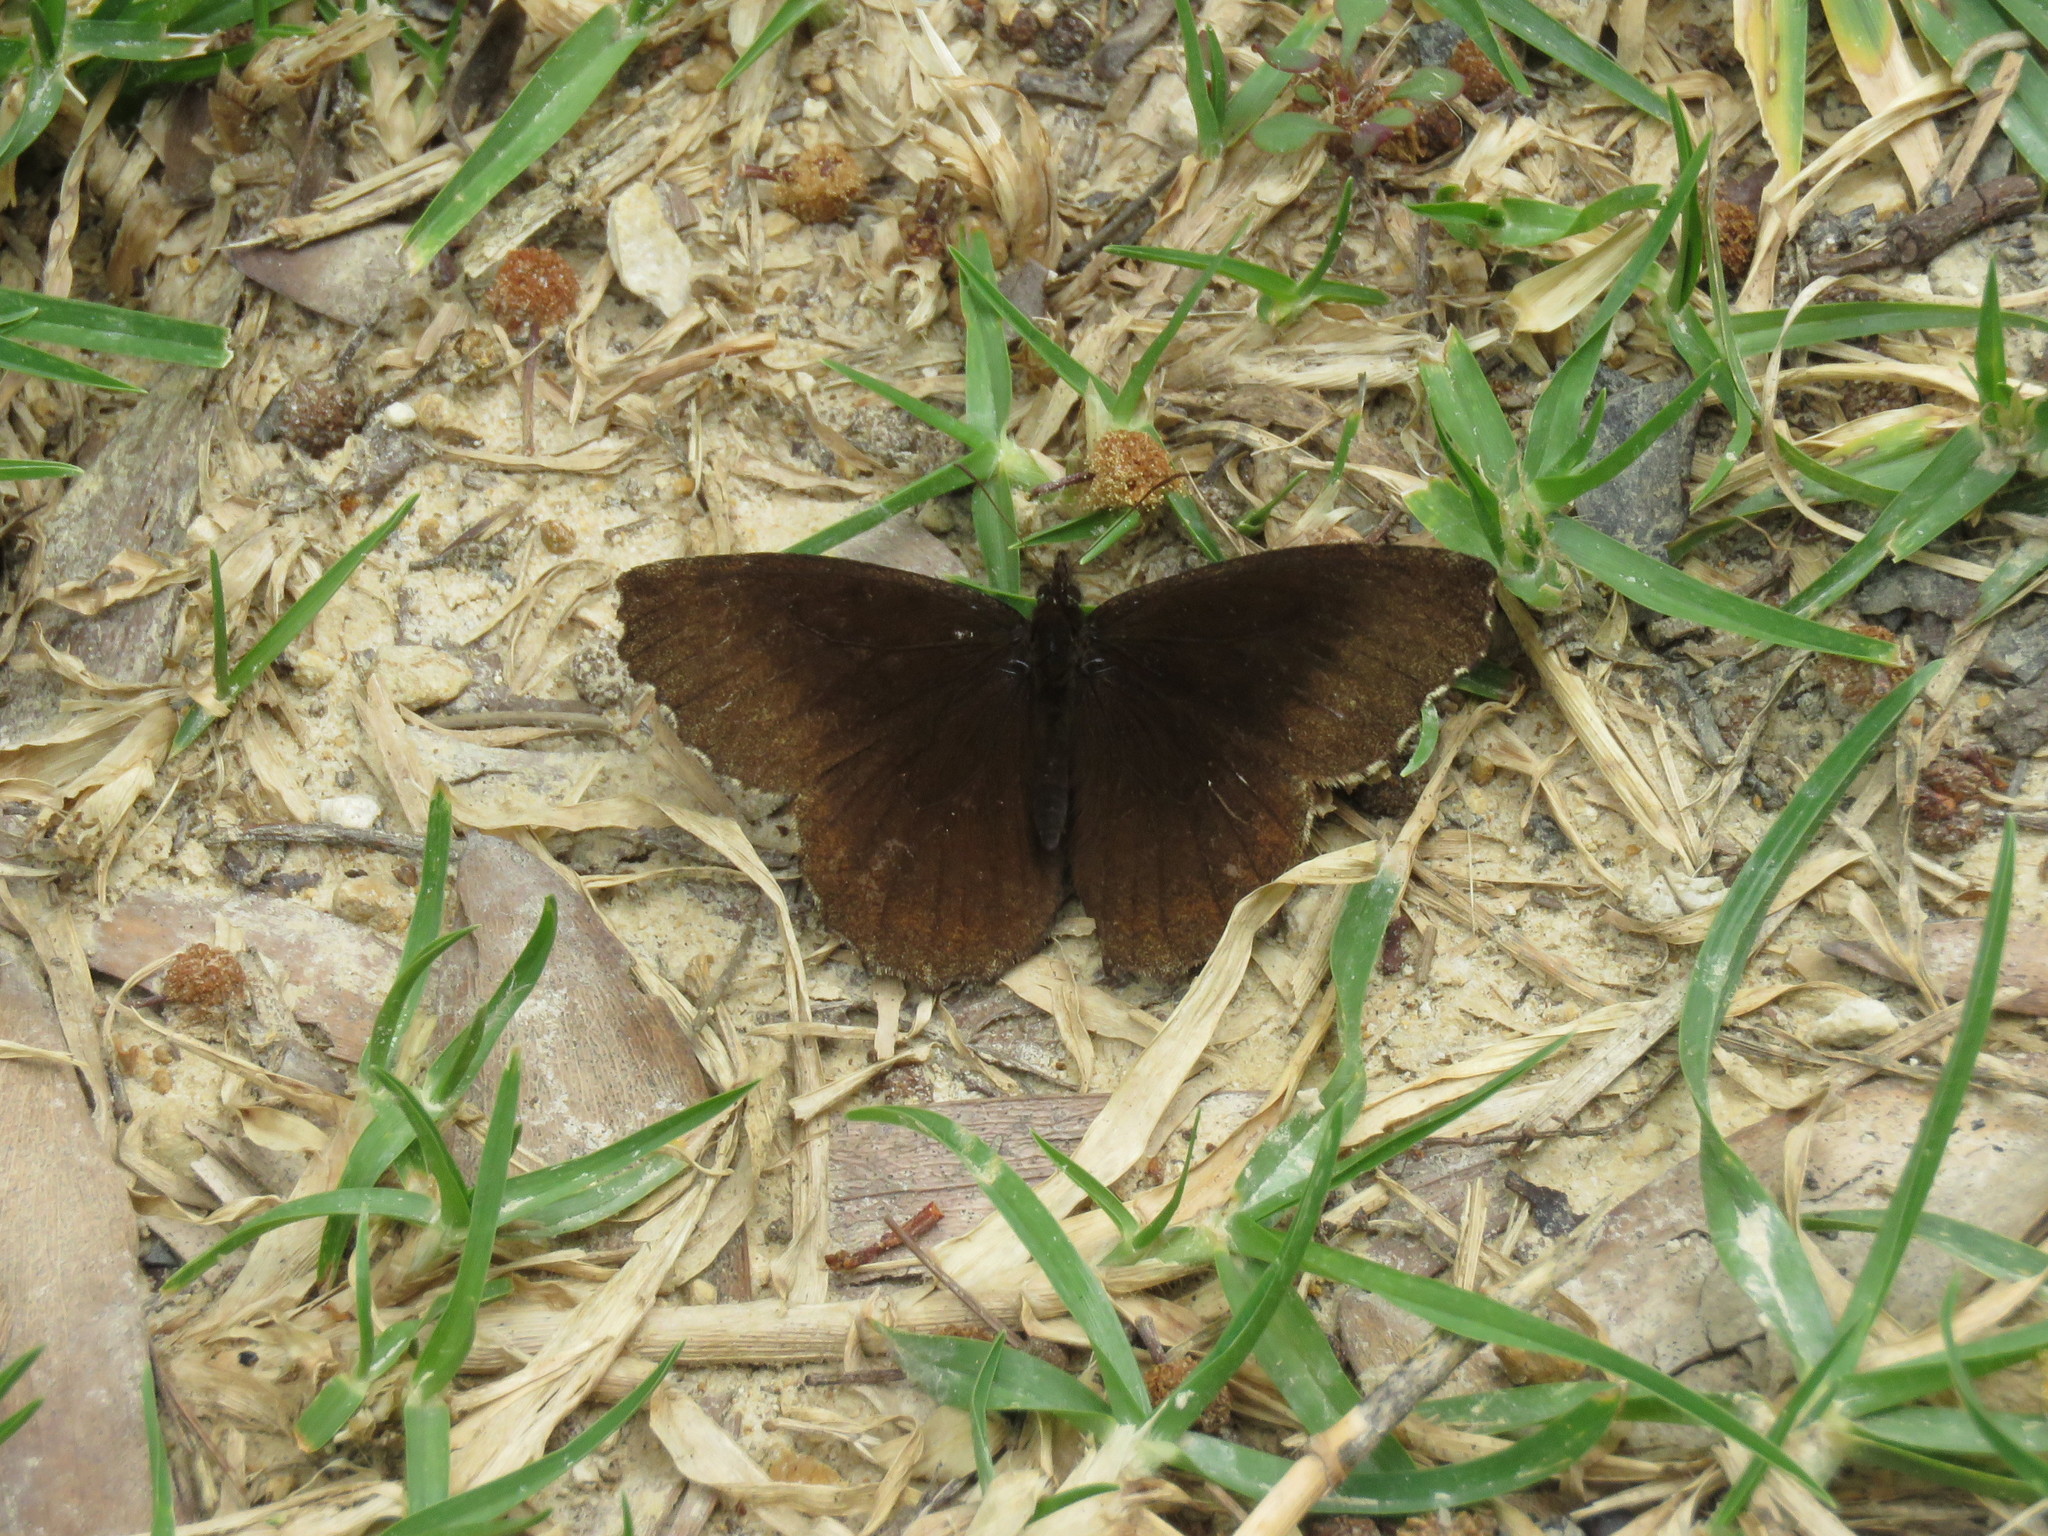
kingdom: Animalia
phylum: Arthropoda
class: Insecta
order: Lepidoptera
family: Nymphalidae
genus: Panyapedaliodes
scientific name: Panyapedaliodes drymaea
